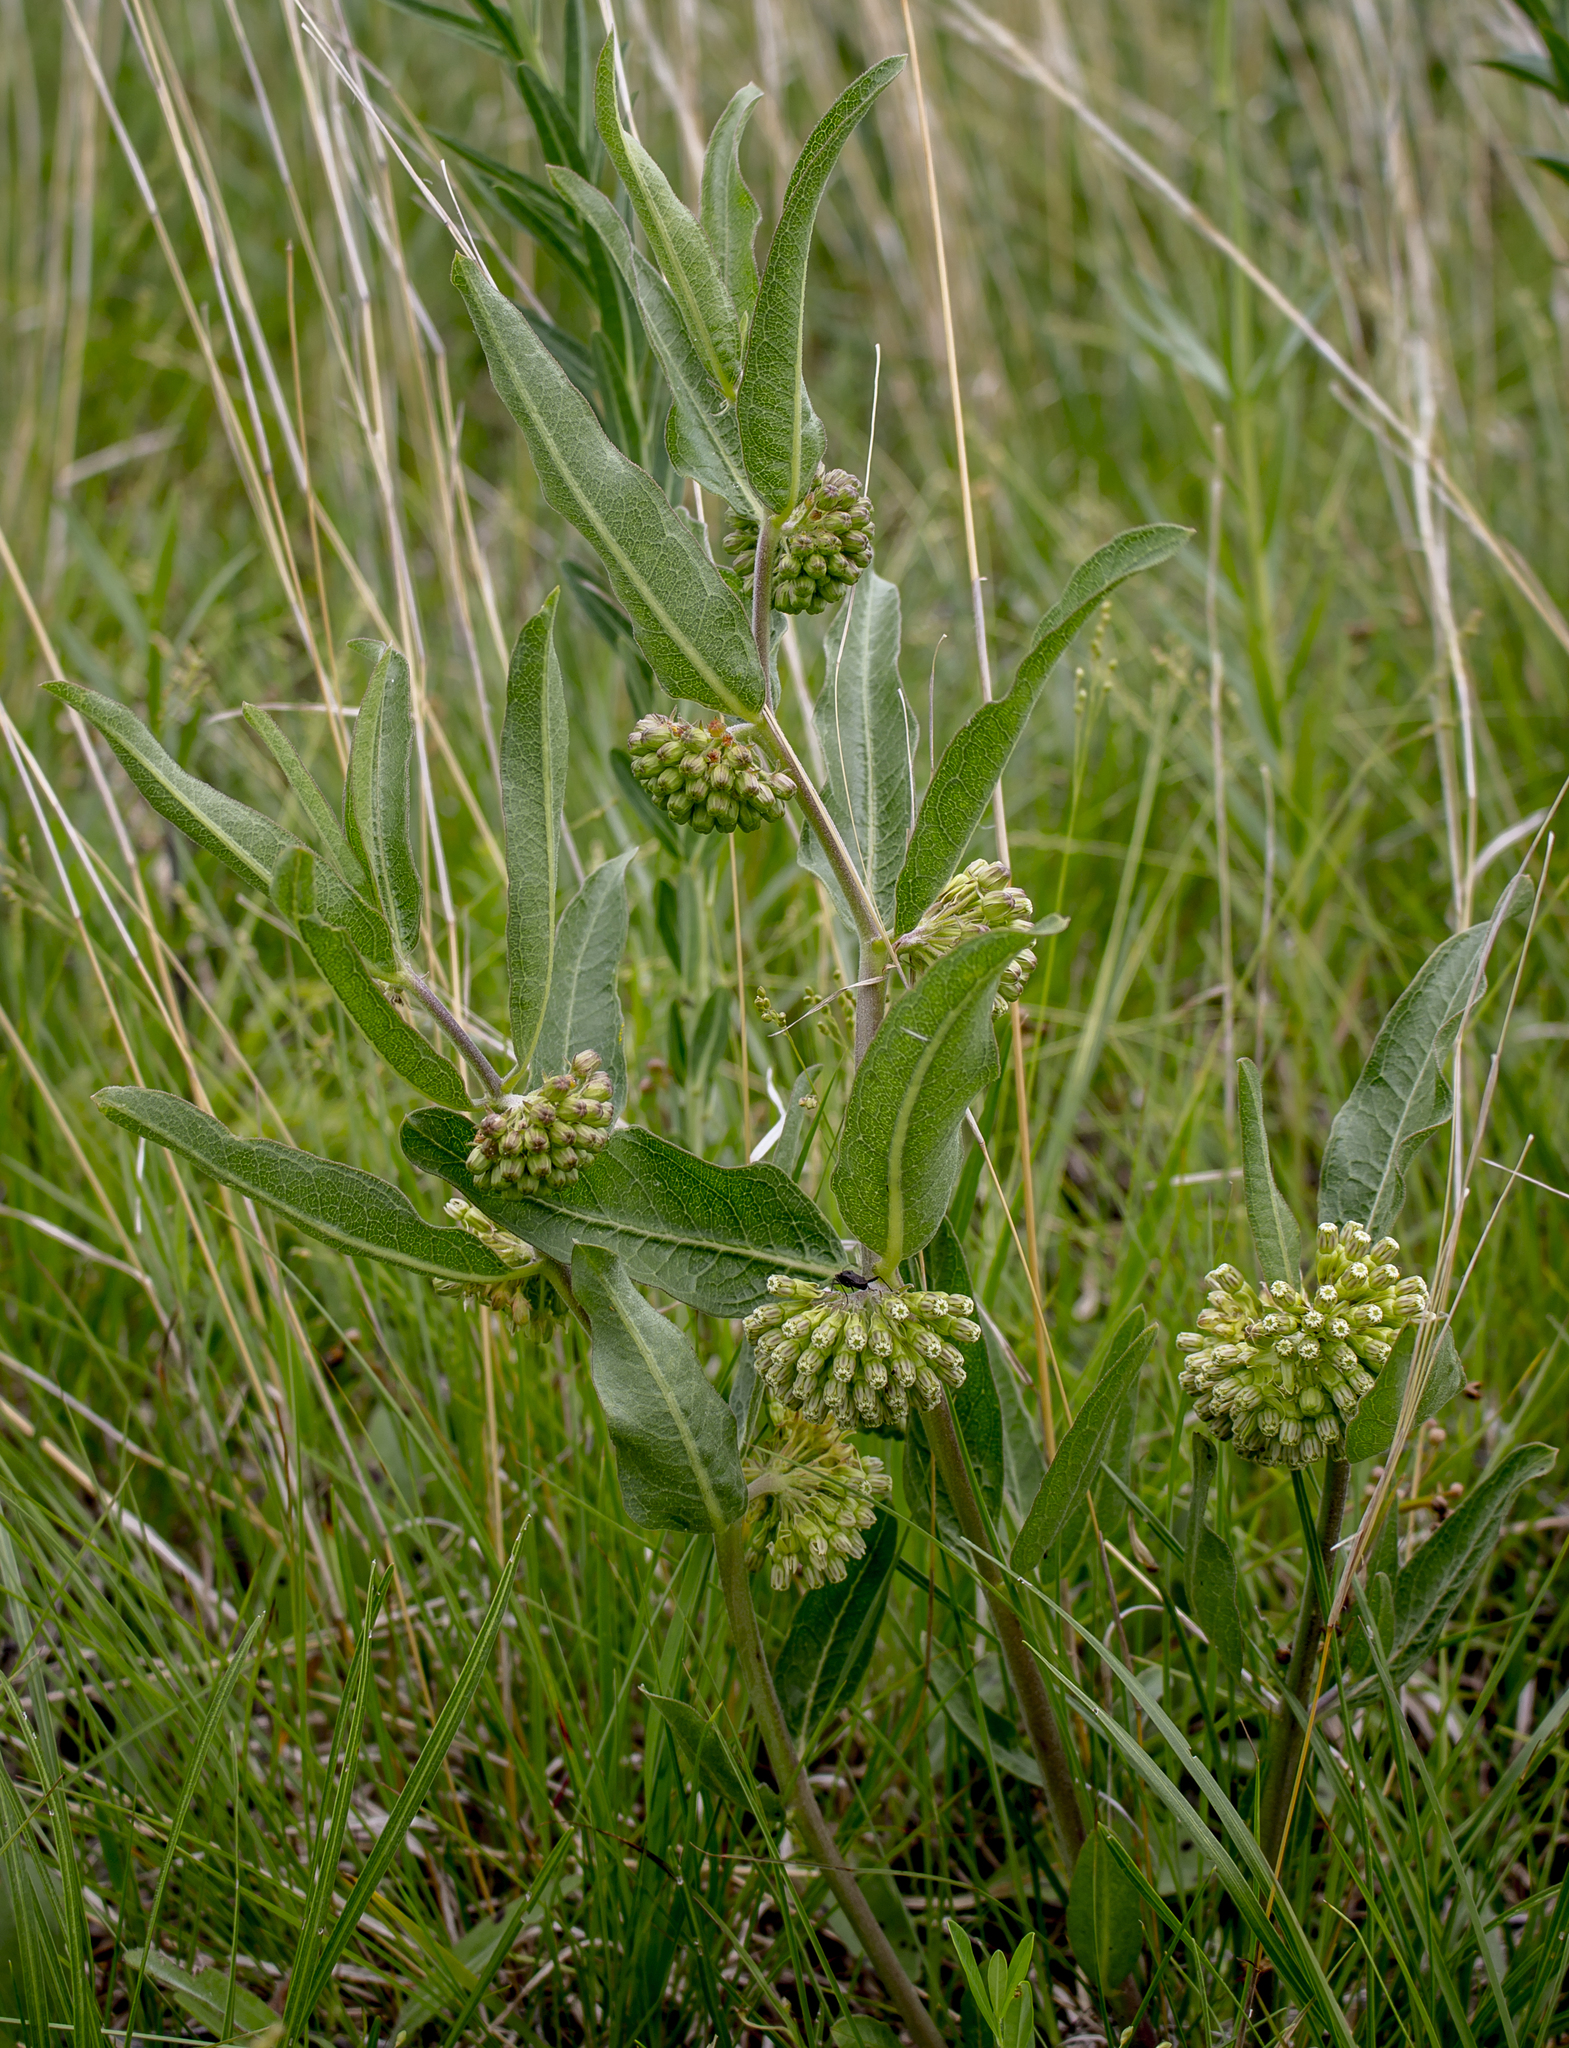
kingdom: Plantae
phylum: Tracheophyta
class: Magnoliopsida
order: Gentianales
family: Apocynaceae
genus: Asclepias
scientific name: Asclepias viridiflora
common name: Green comet milkweed
